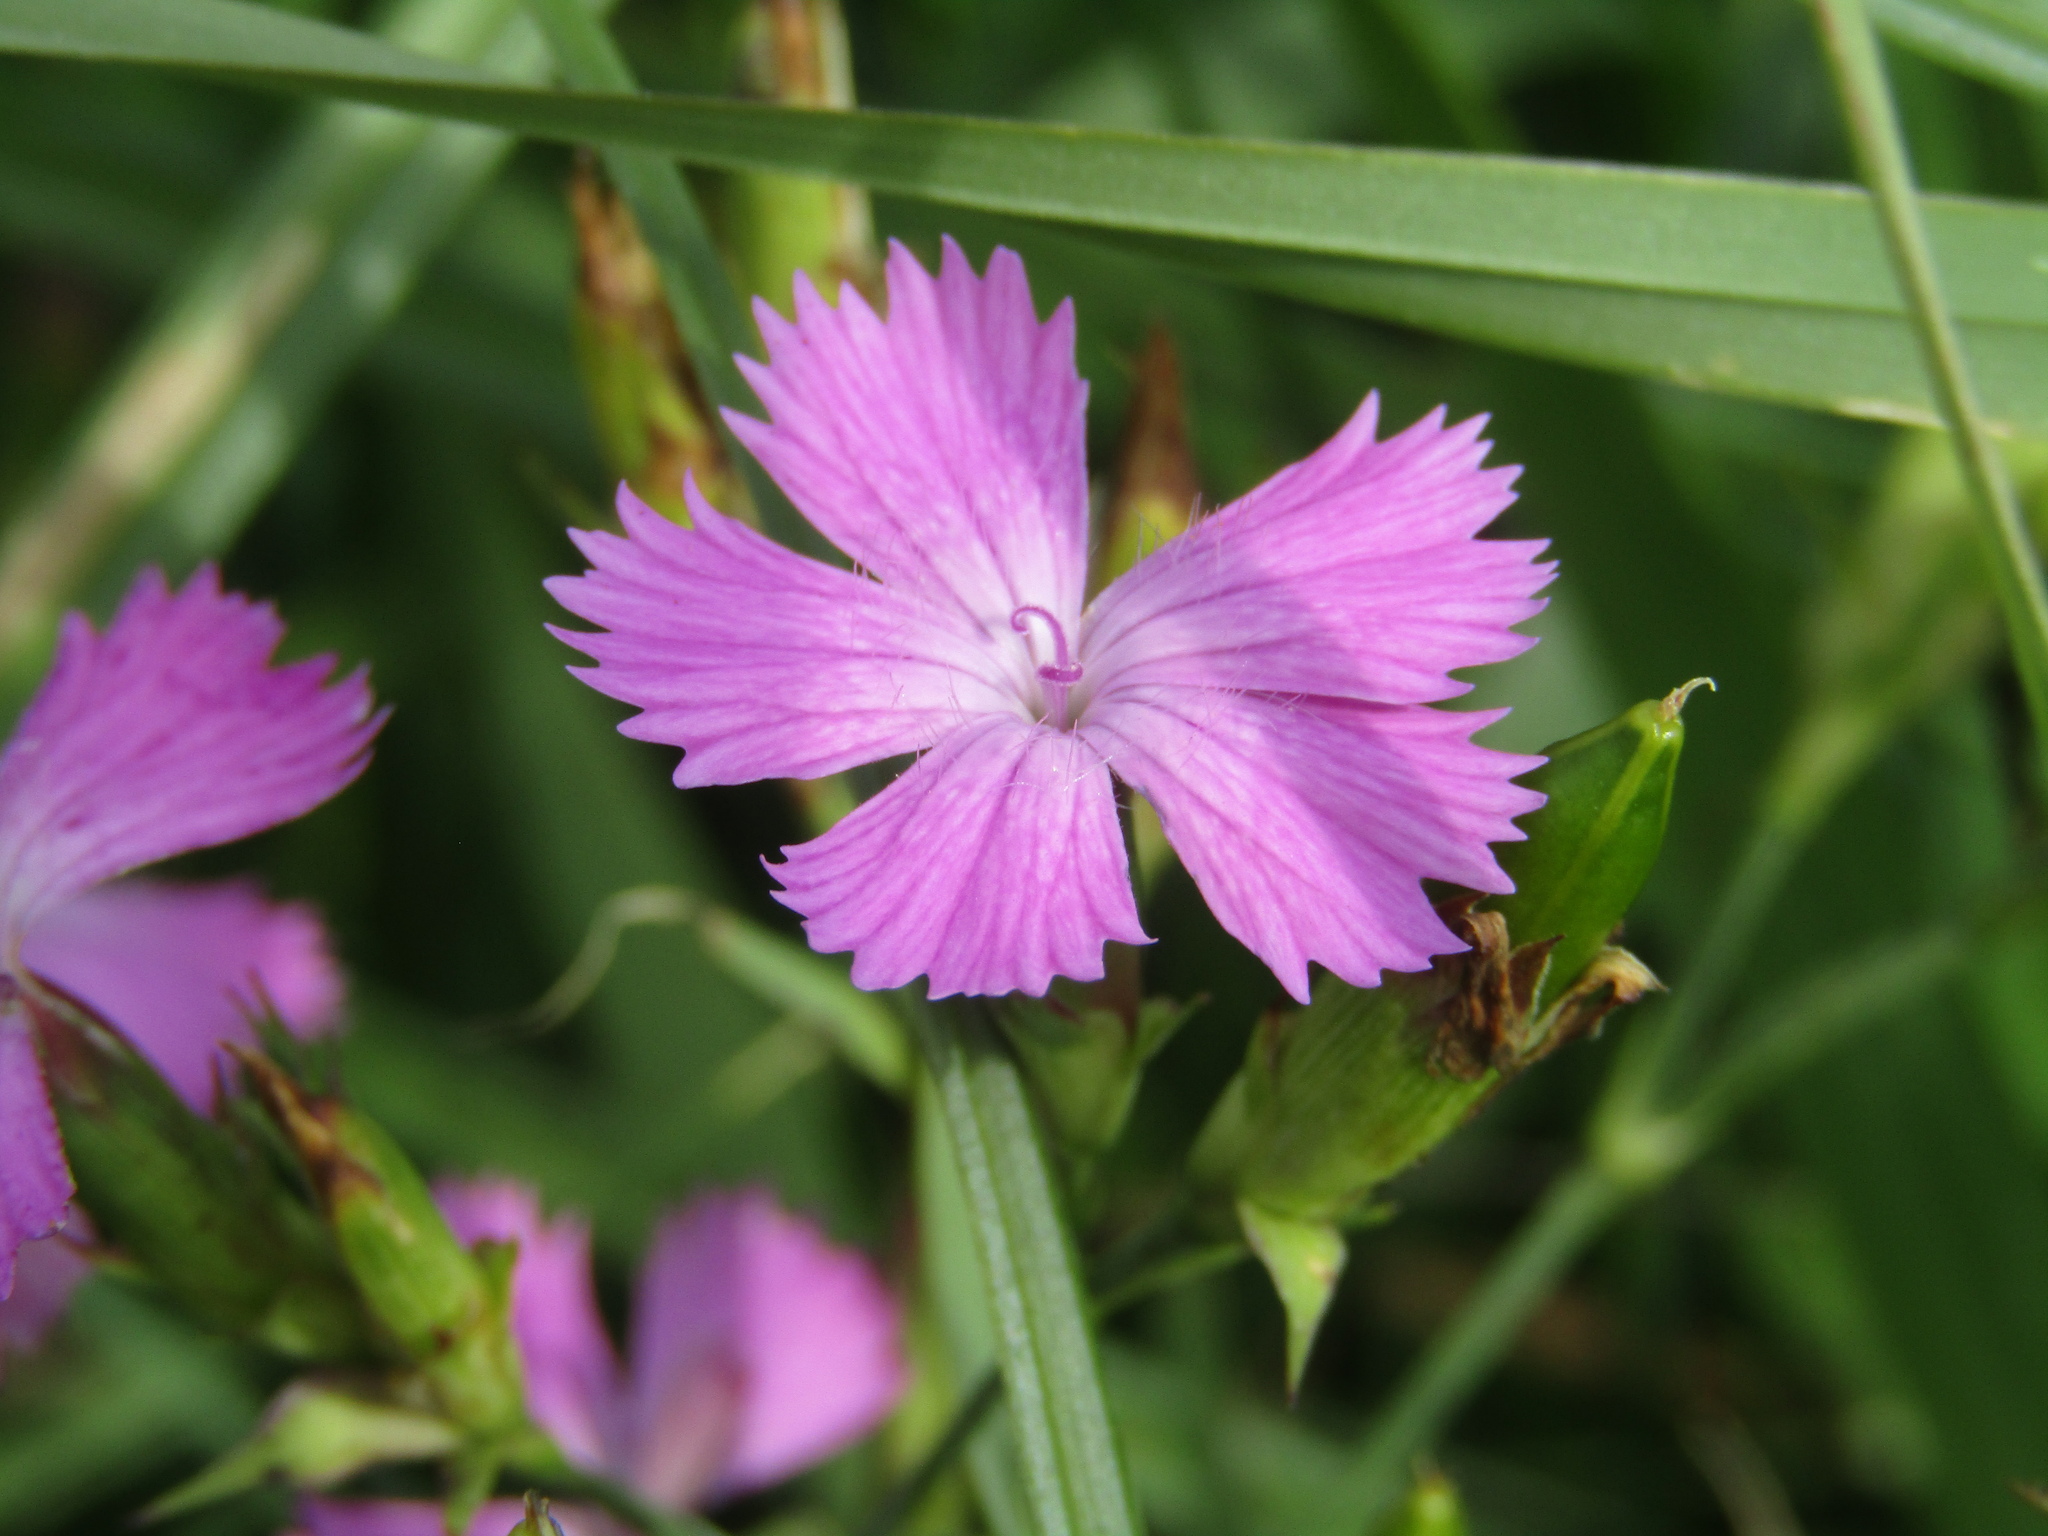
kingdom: Plantae
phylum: Tracheophyta
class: Magnoliopsida
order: Caryophyllales
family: Caryophyllaceae
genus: Dianthus
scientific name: Dianthus chinensis
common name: Rainbow pink
